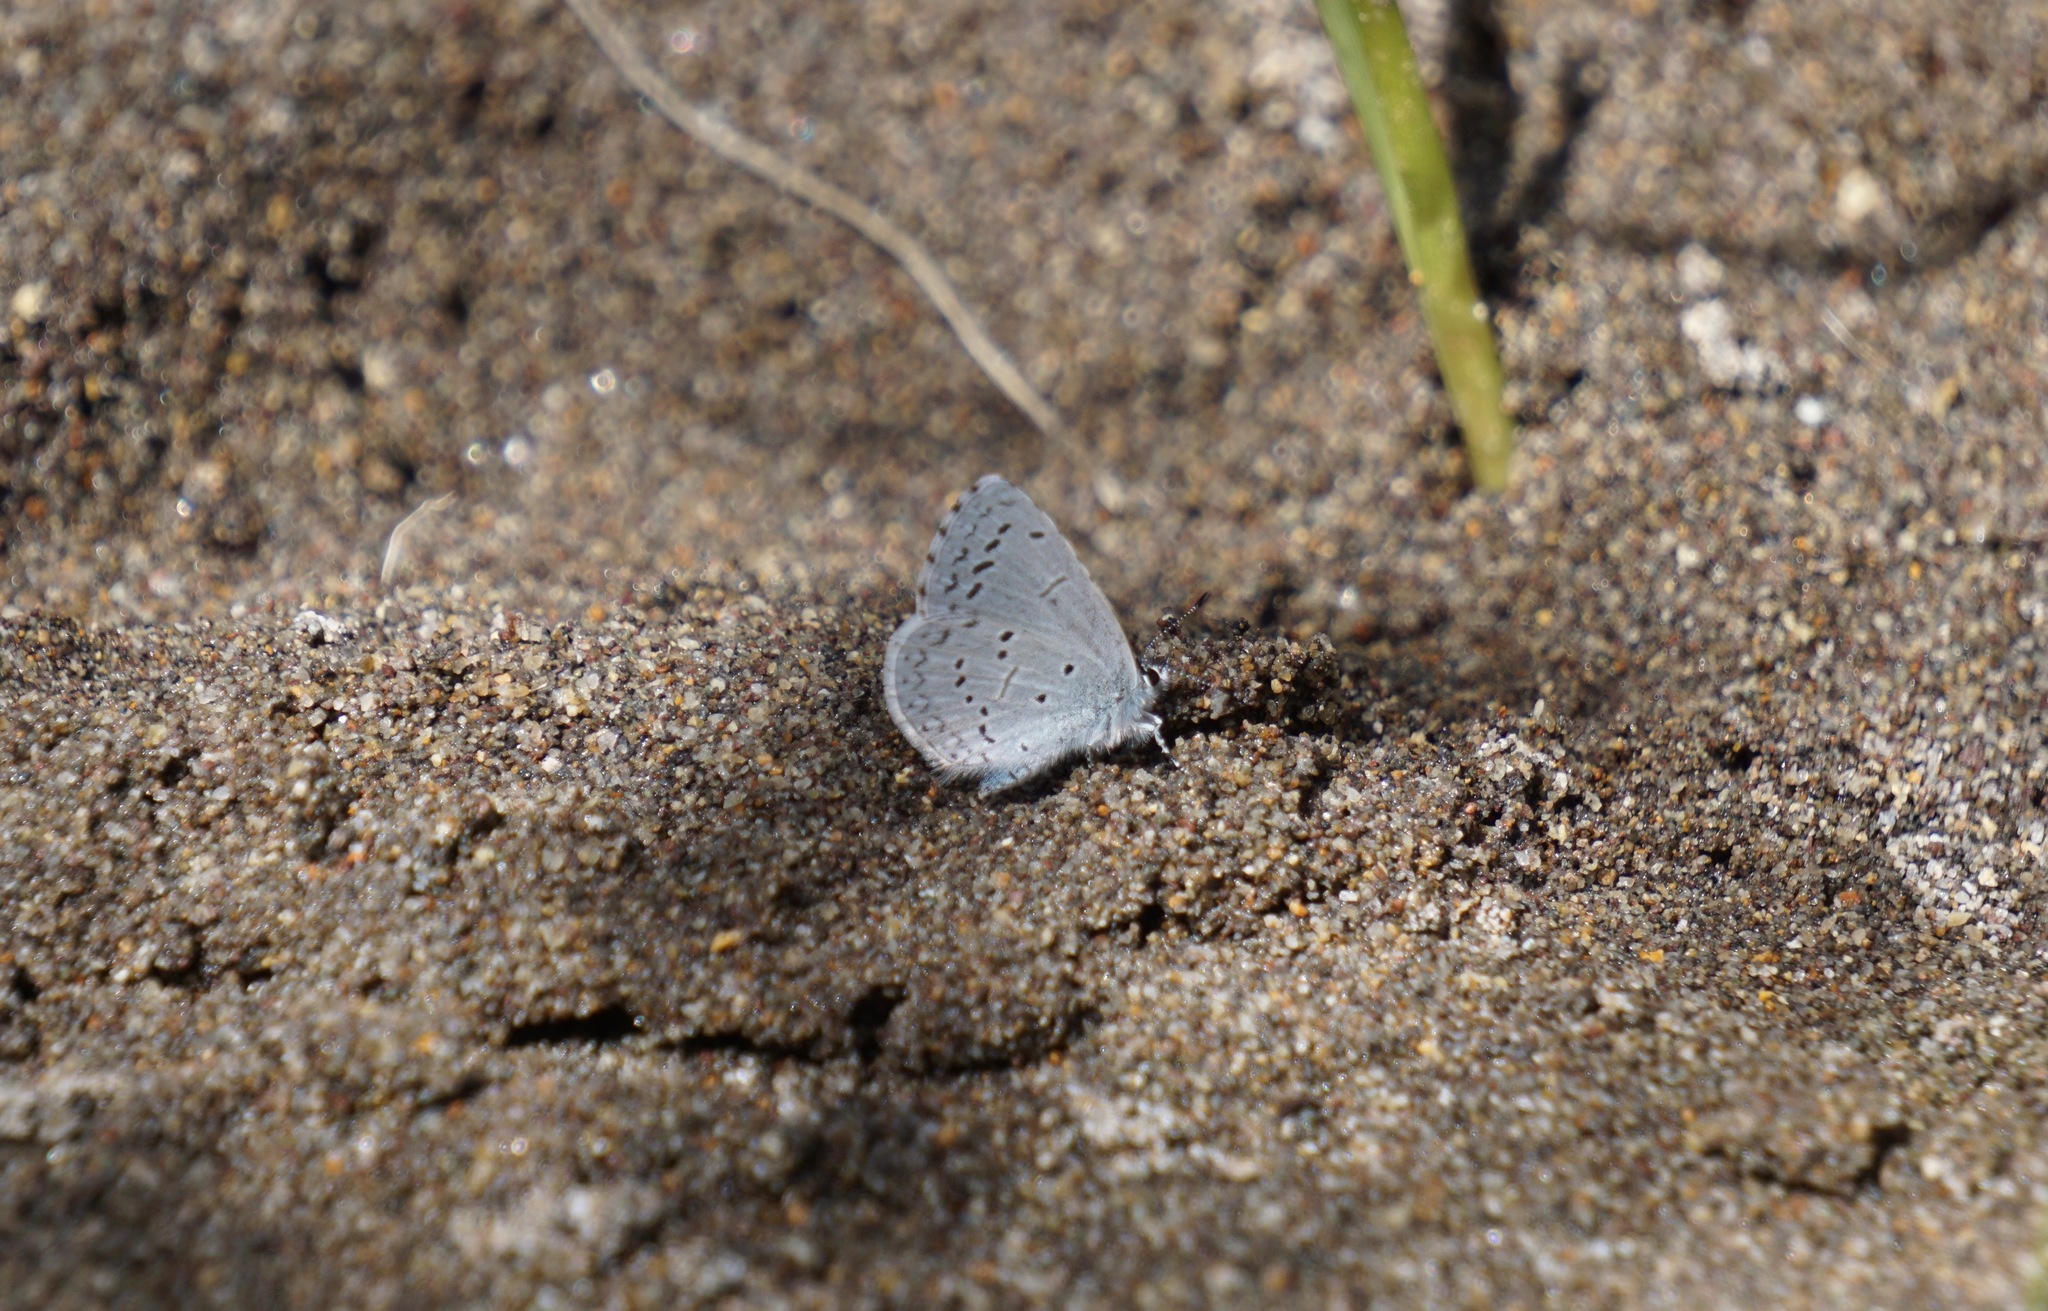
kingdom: Animalia
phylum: Arthropoda
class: Insecta
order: Lepidoptera
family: Lycaenidae
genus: Celastrina
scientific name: Celastrina ladon
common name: Spring azure
